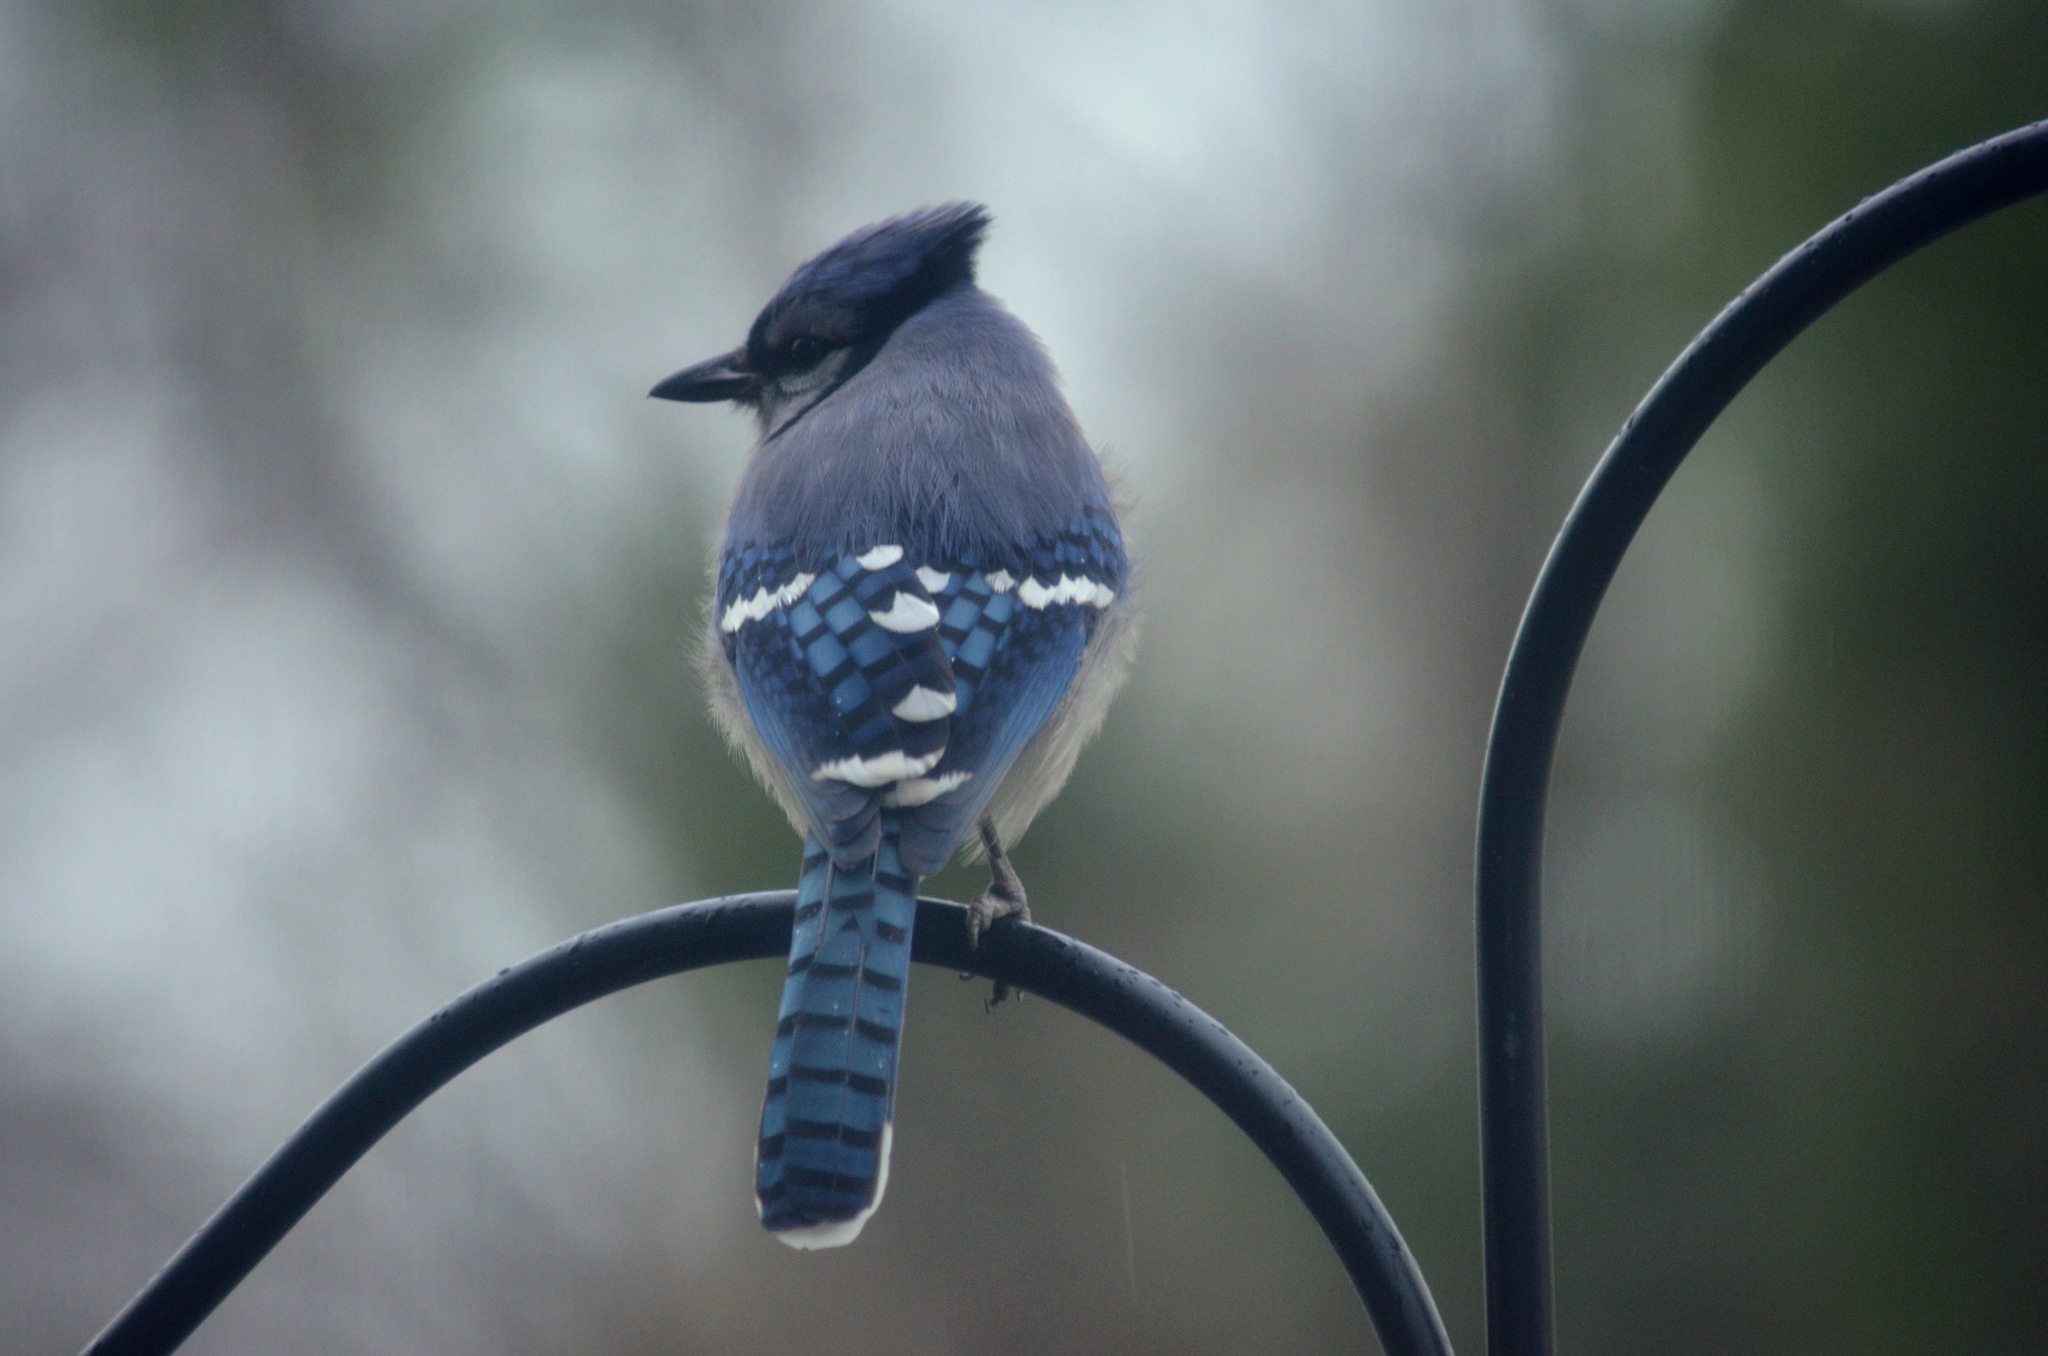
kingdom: Animalia
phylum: Chordata
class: Aves
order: Passeriformes
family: Corvidae
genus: Cyanocitta
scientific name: Cyanocitta cristata
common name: Blue jay
